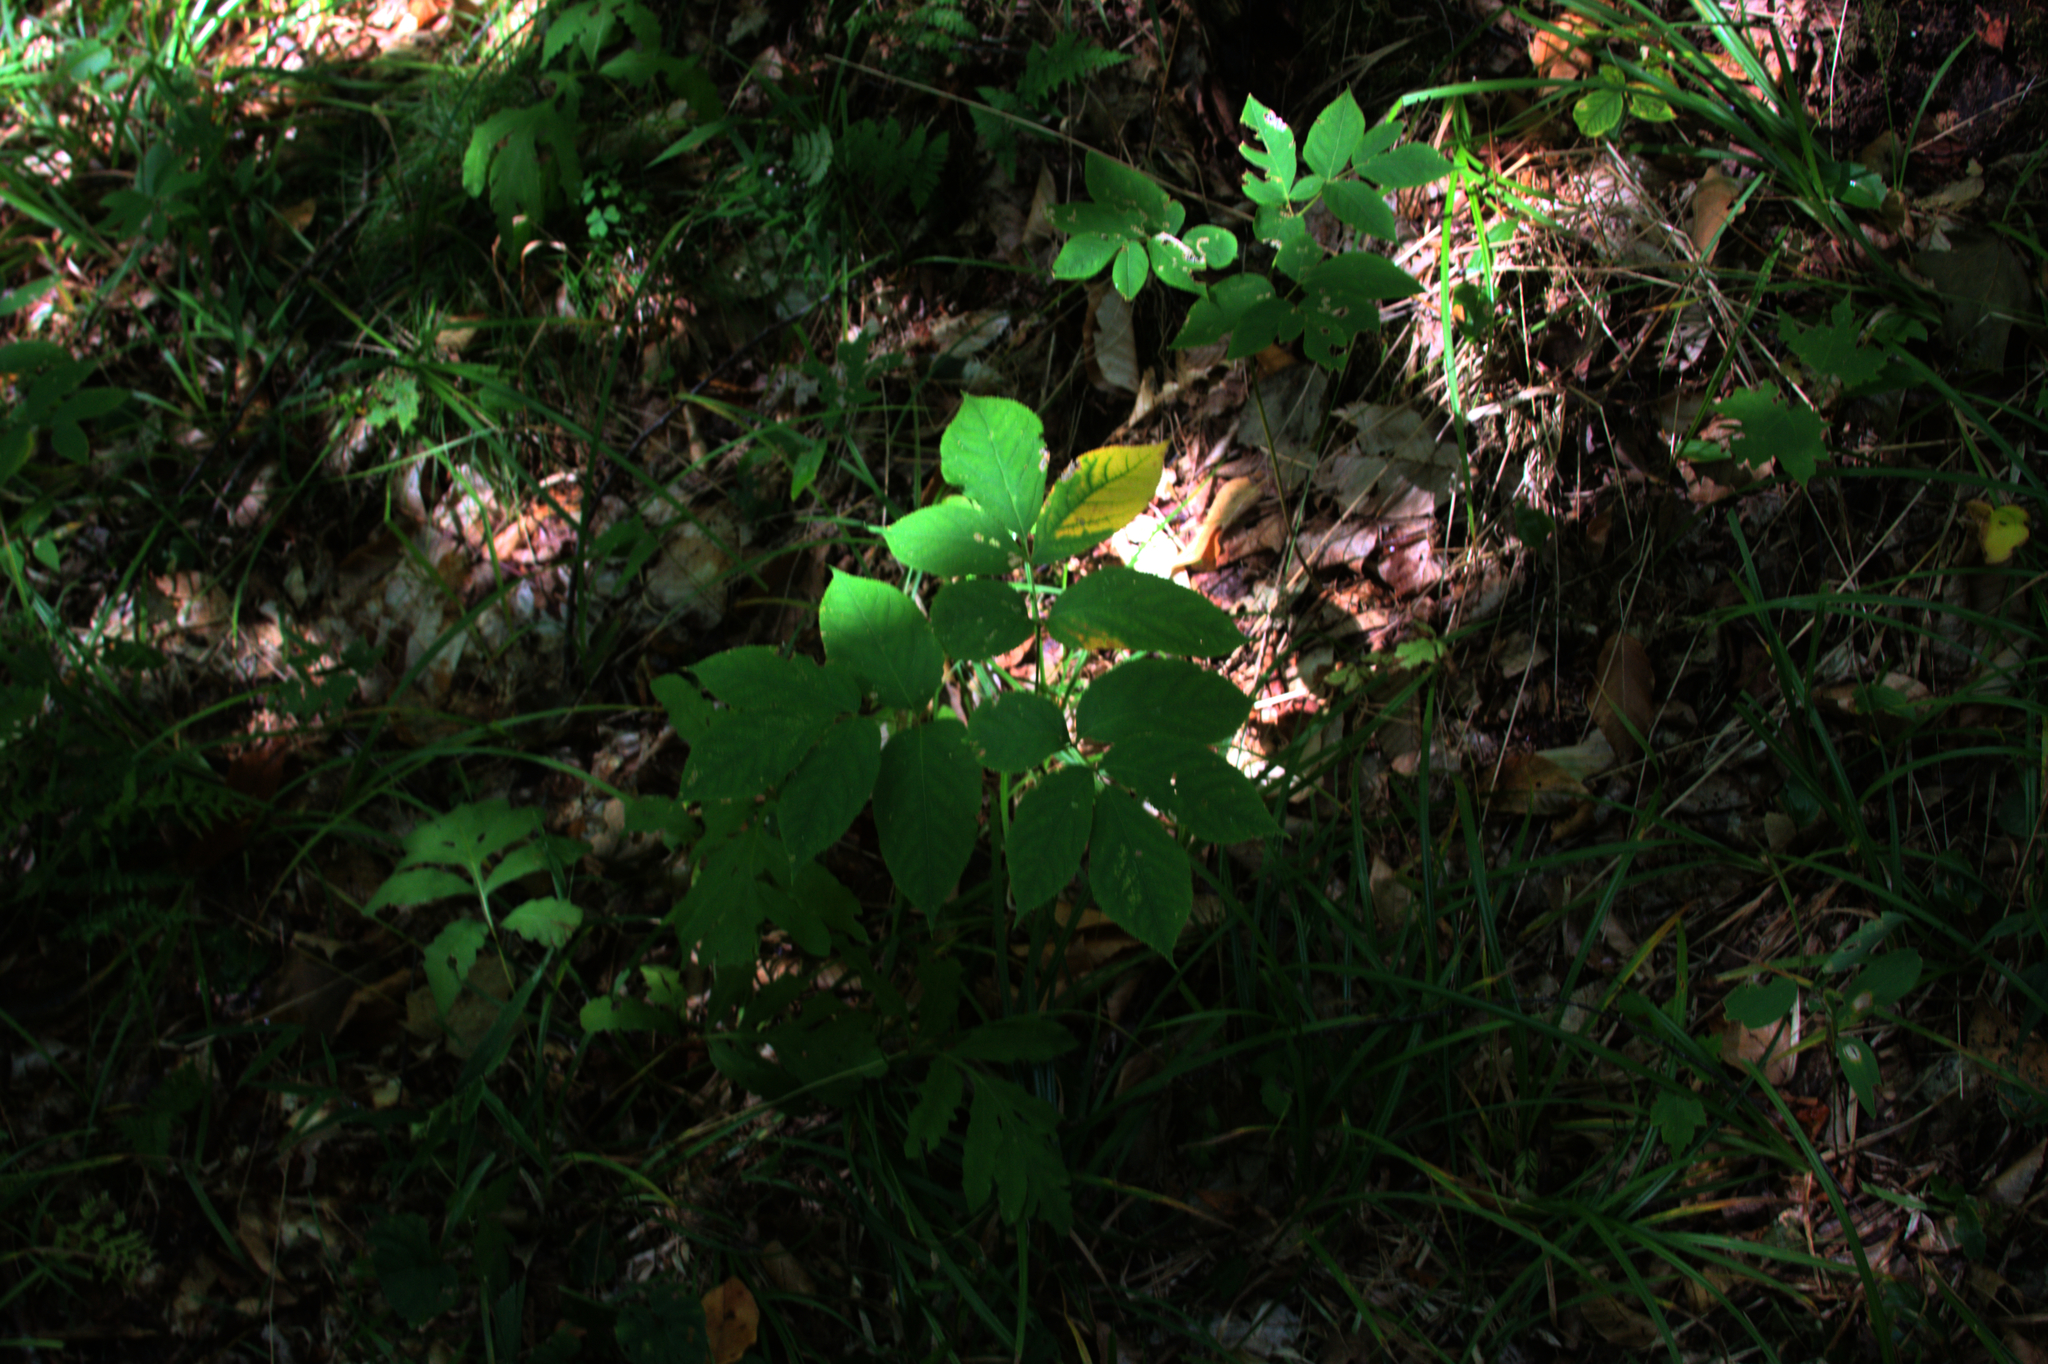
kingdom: Plantae
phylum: Tracheophyta
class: Magnoliopsida
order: Apiales
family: Araliaceae
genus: Aralia
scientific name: Aralia nudicaulis
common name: Wild sarsaparilla
